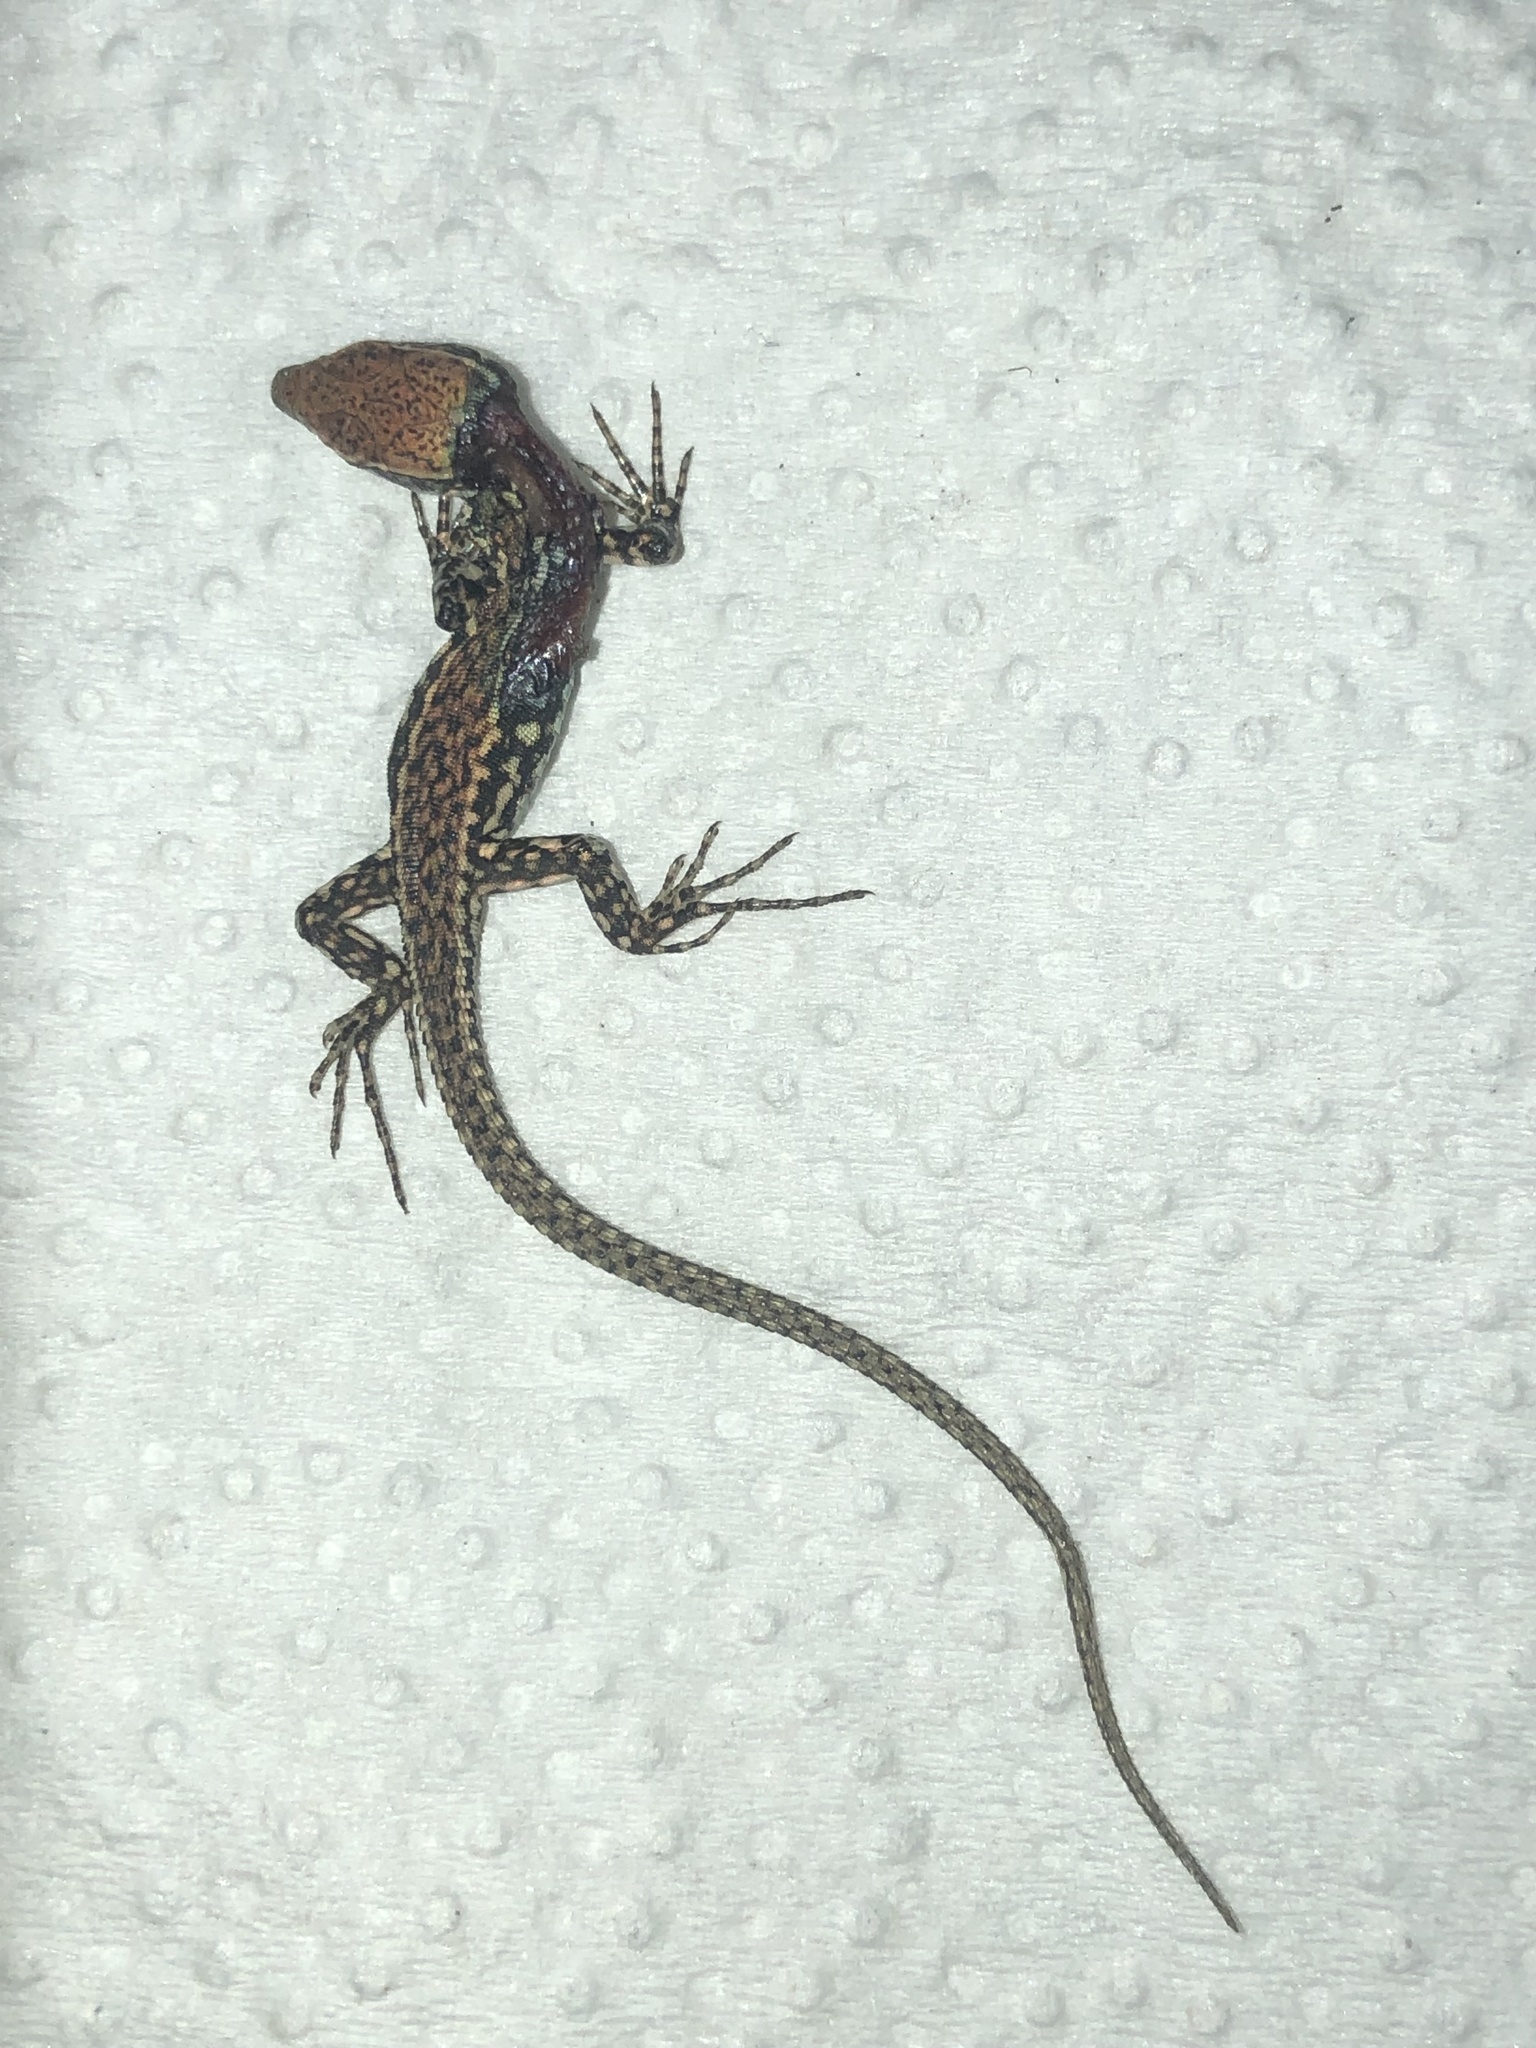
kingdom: Animalia
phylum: Chordata
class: Squamata
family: Lacertidae
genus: Podarcis
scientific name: Podarcis muralis
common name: Common wall lizard
